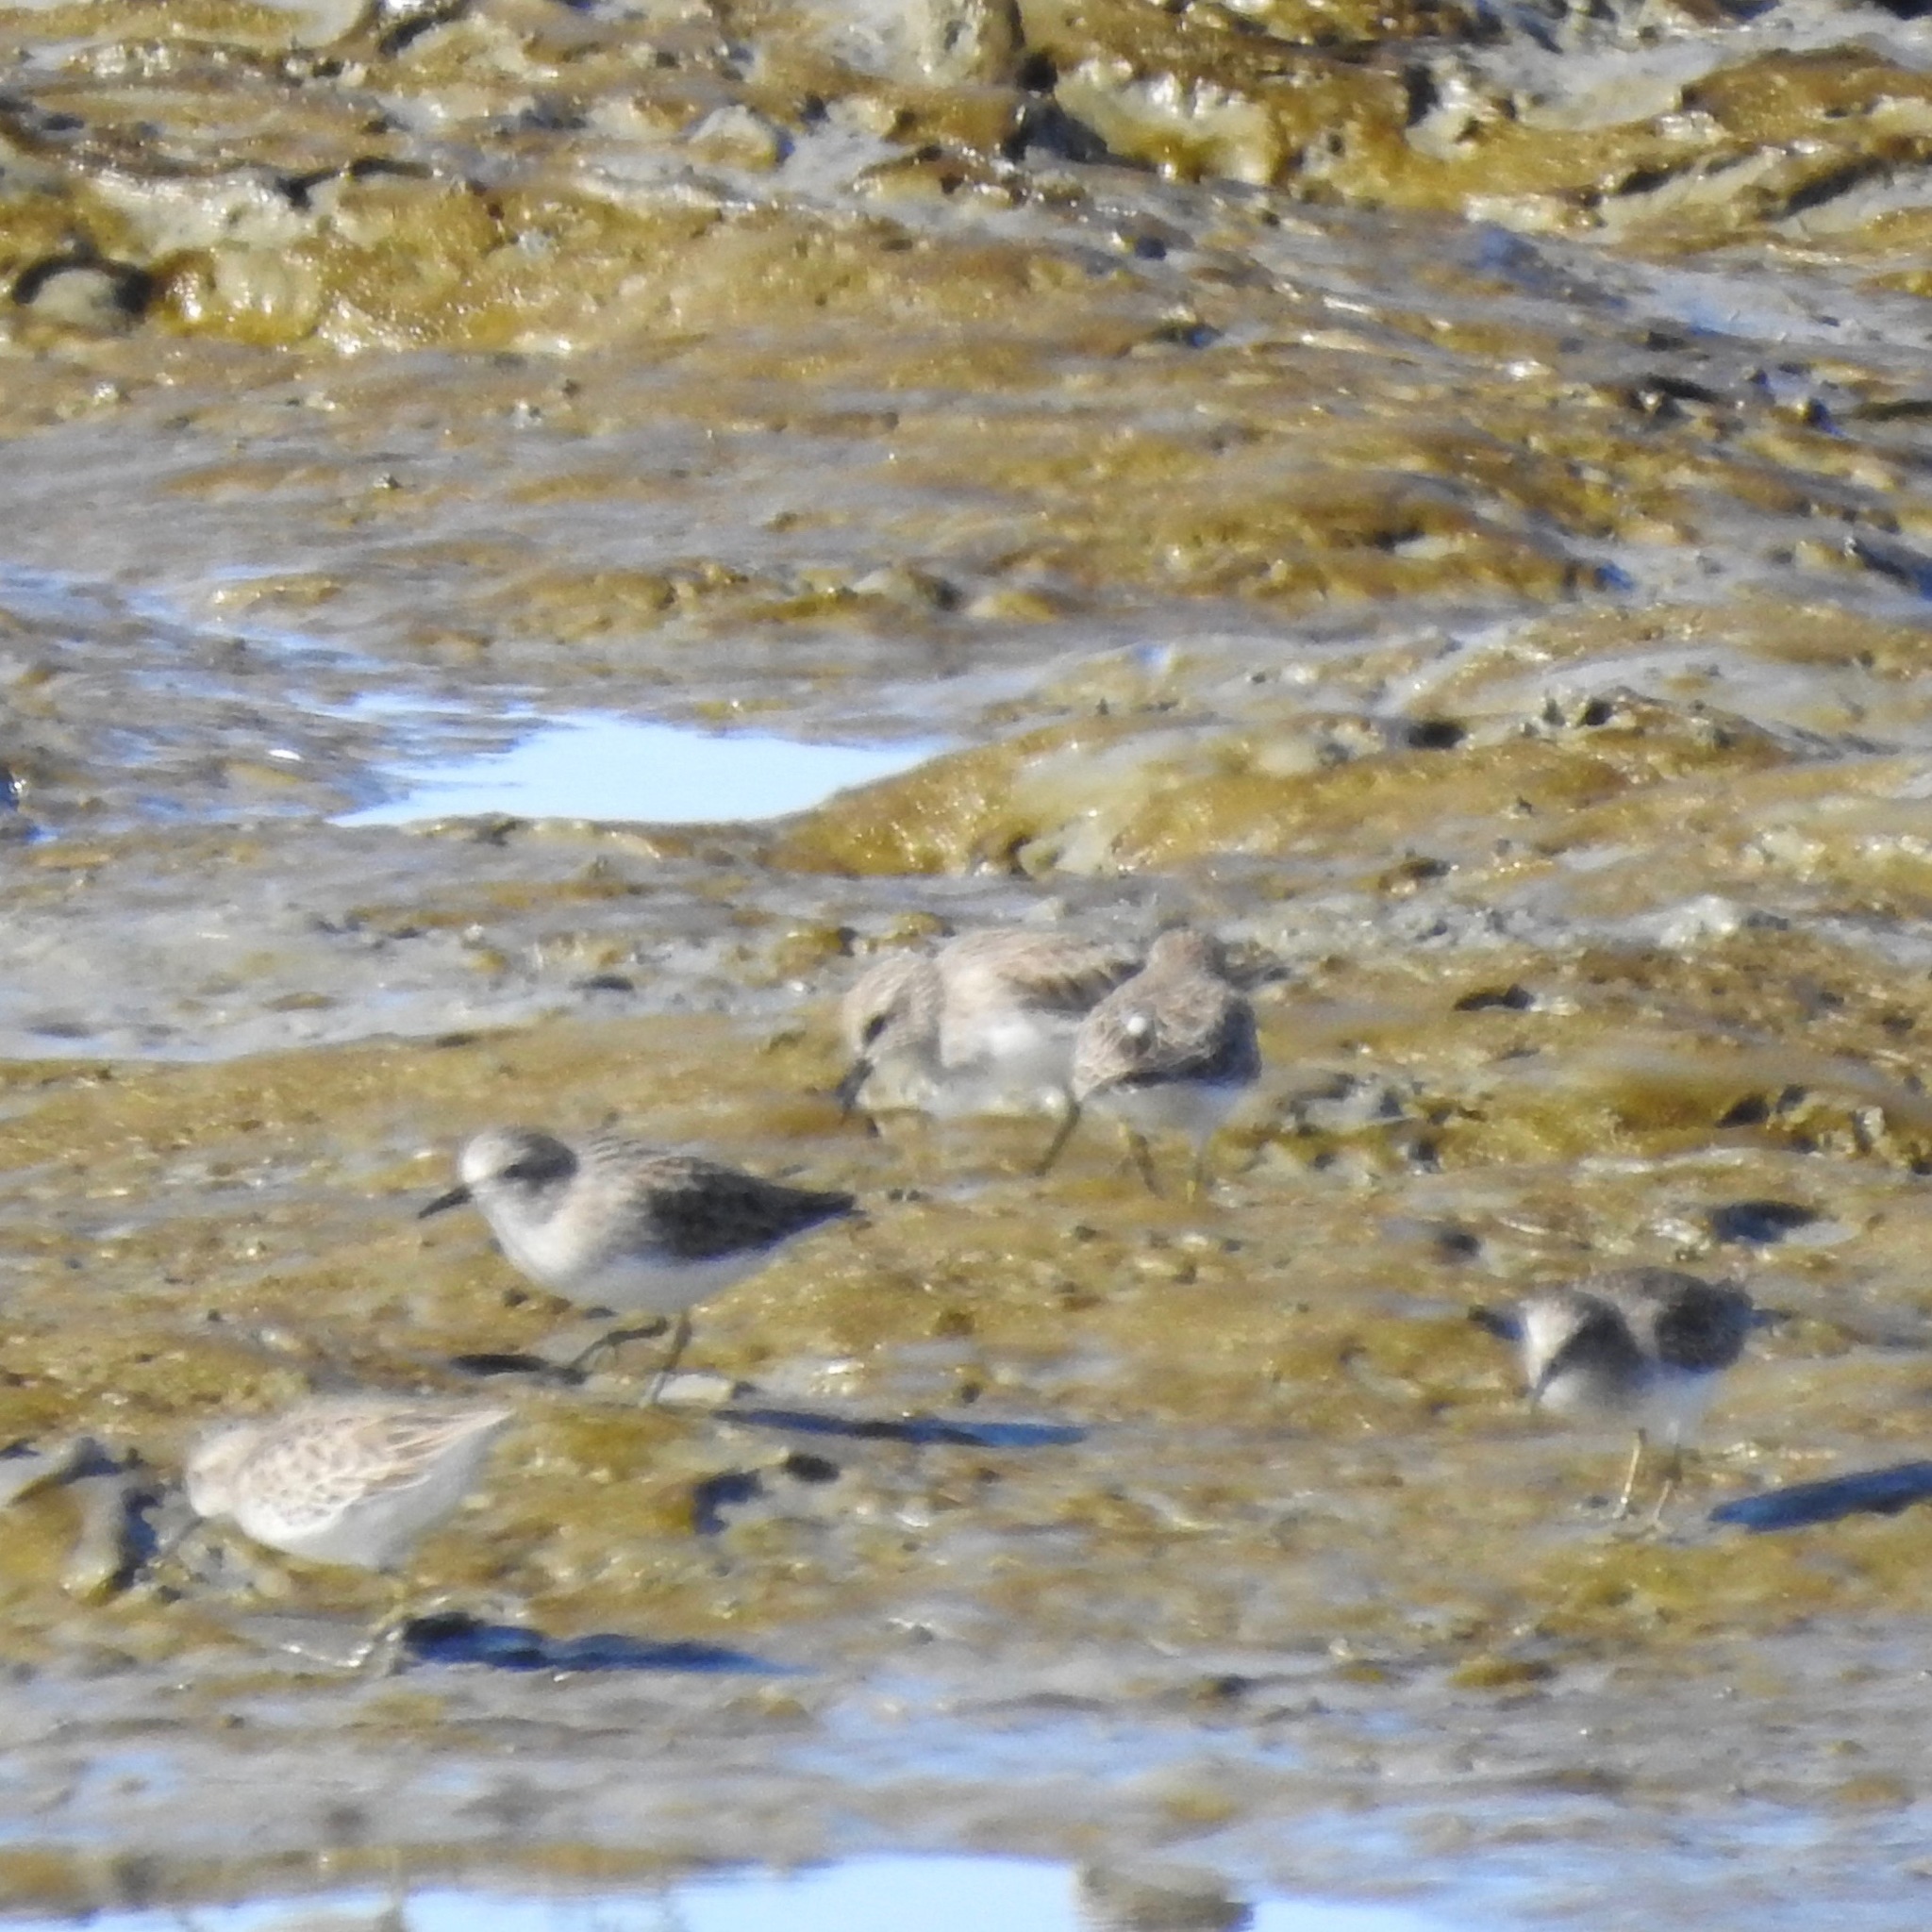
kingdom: Animalia
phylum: Chordata
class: Aves
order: Charadriiformes
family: Scolopacidae
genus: Calidris
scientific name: Calidris minutilla
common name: Least sandpiper
